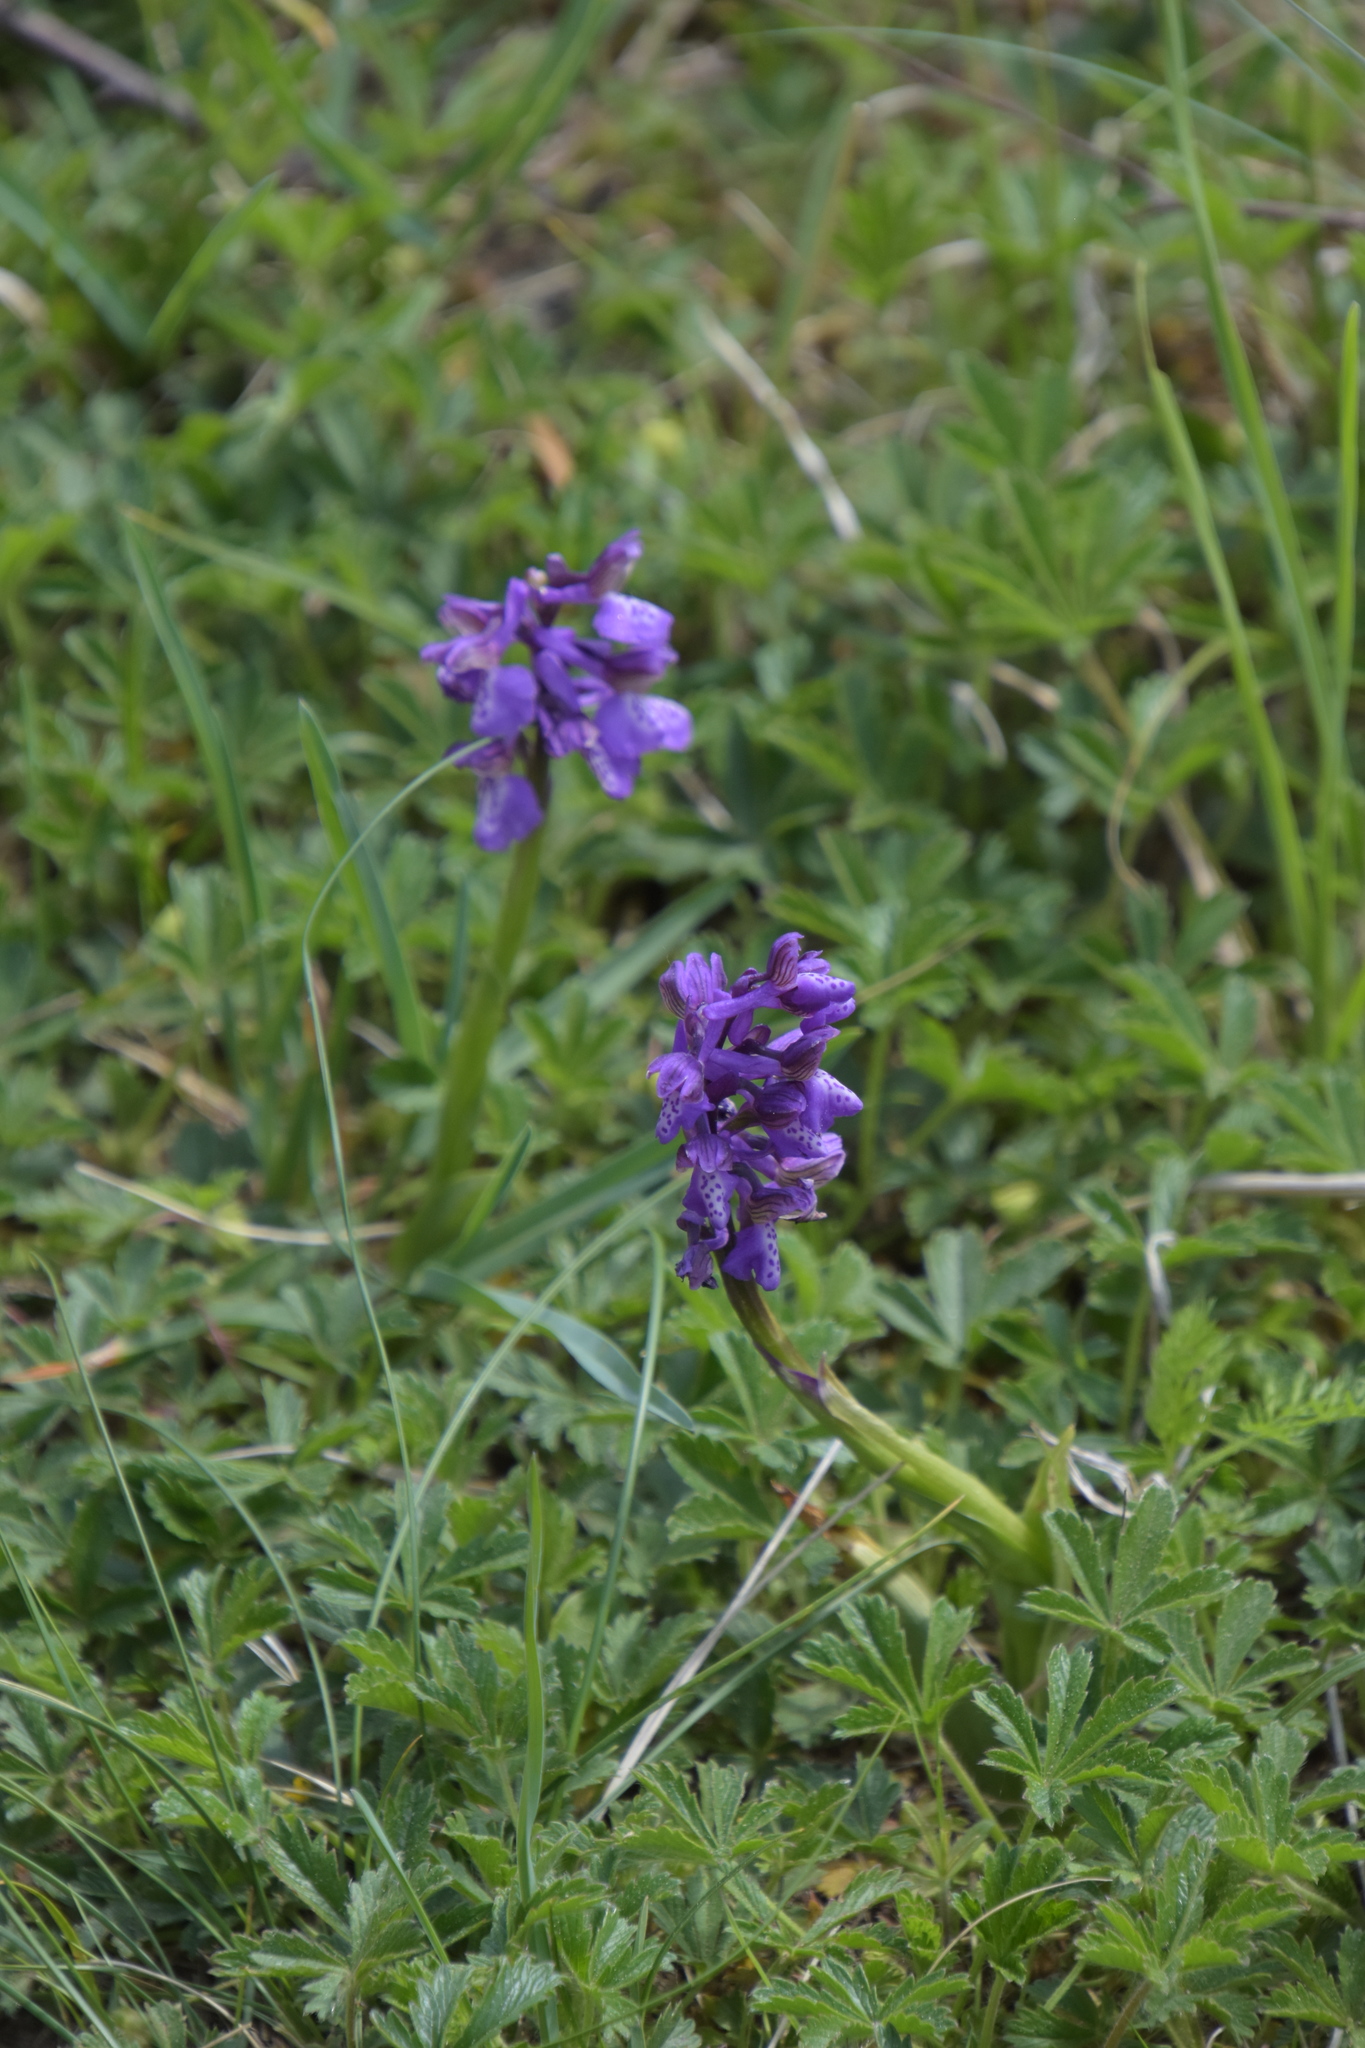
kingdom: Plantae
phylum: Tracheophyta
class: Liliopsida
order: Asparagales
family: Orchidaceae
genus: Anacamptis
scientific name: Anacamptis morio
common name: Green-winged orchid
